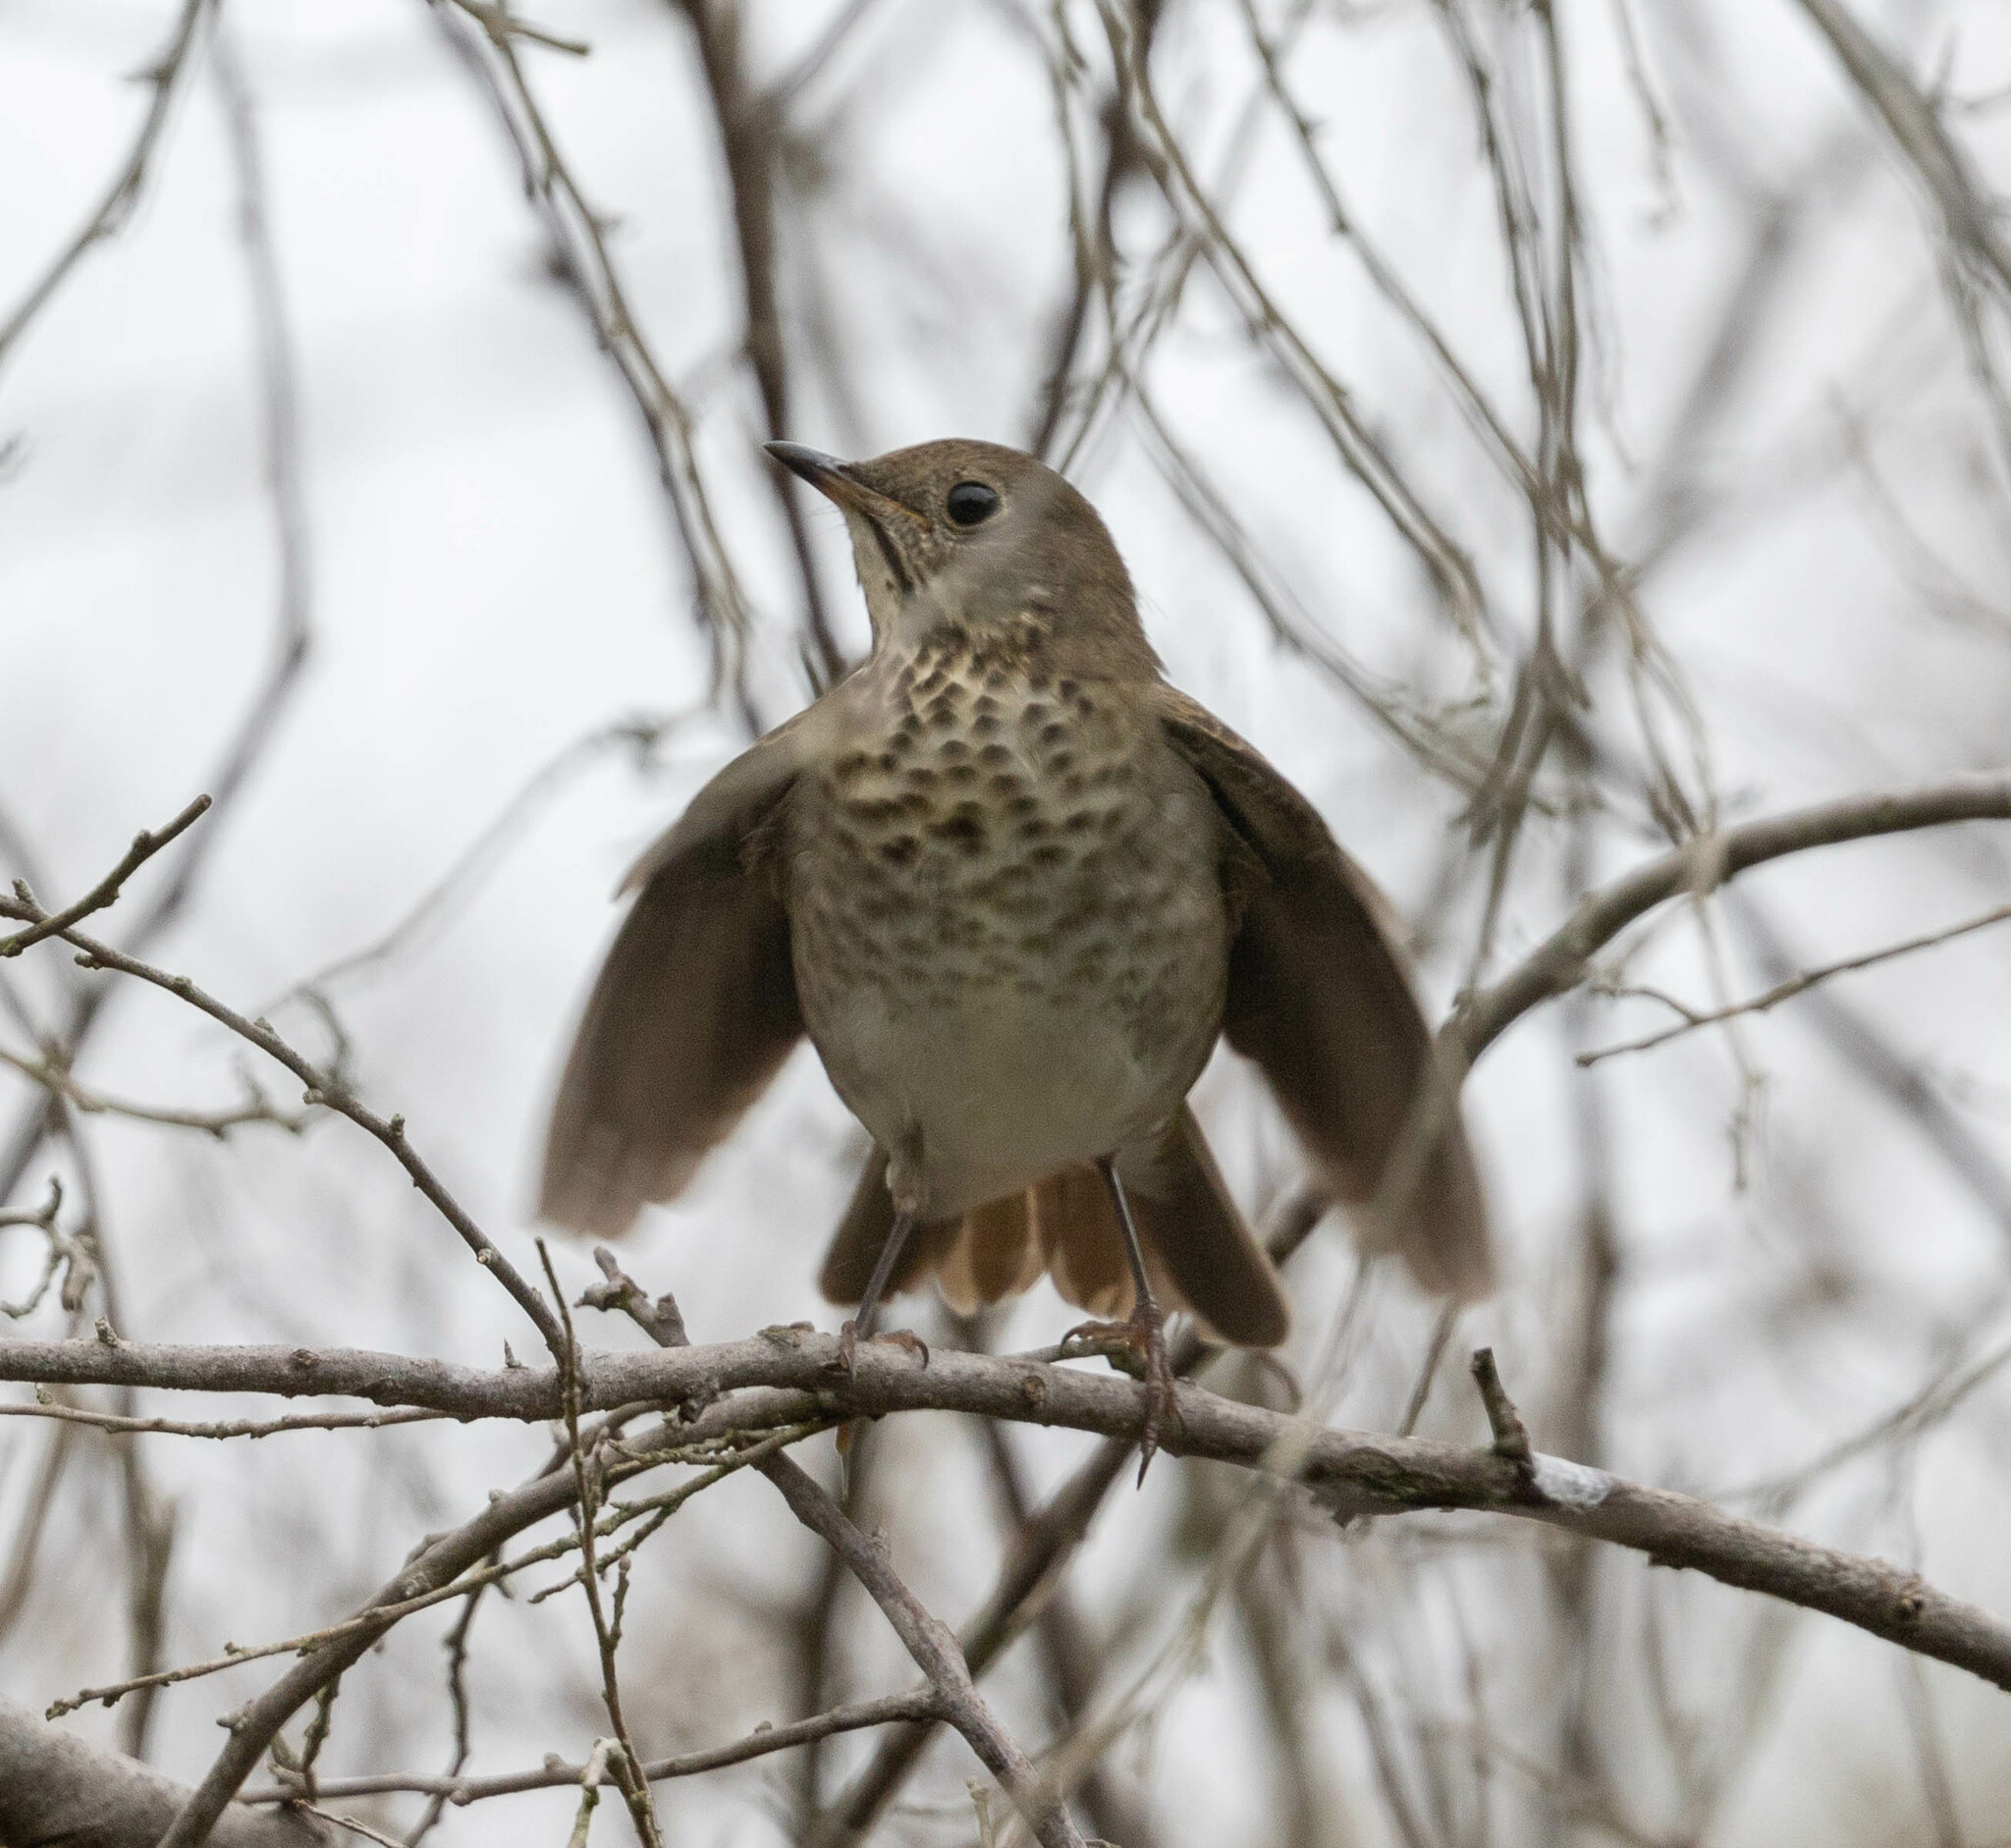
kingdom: Animalia
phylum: Chordata
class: Aves
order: Passeriformes
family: Turdidae
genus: Catharus
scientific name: Catharus minimus
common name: Grey-cheeked thrush
